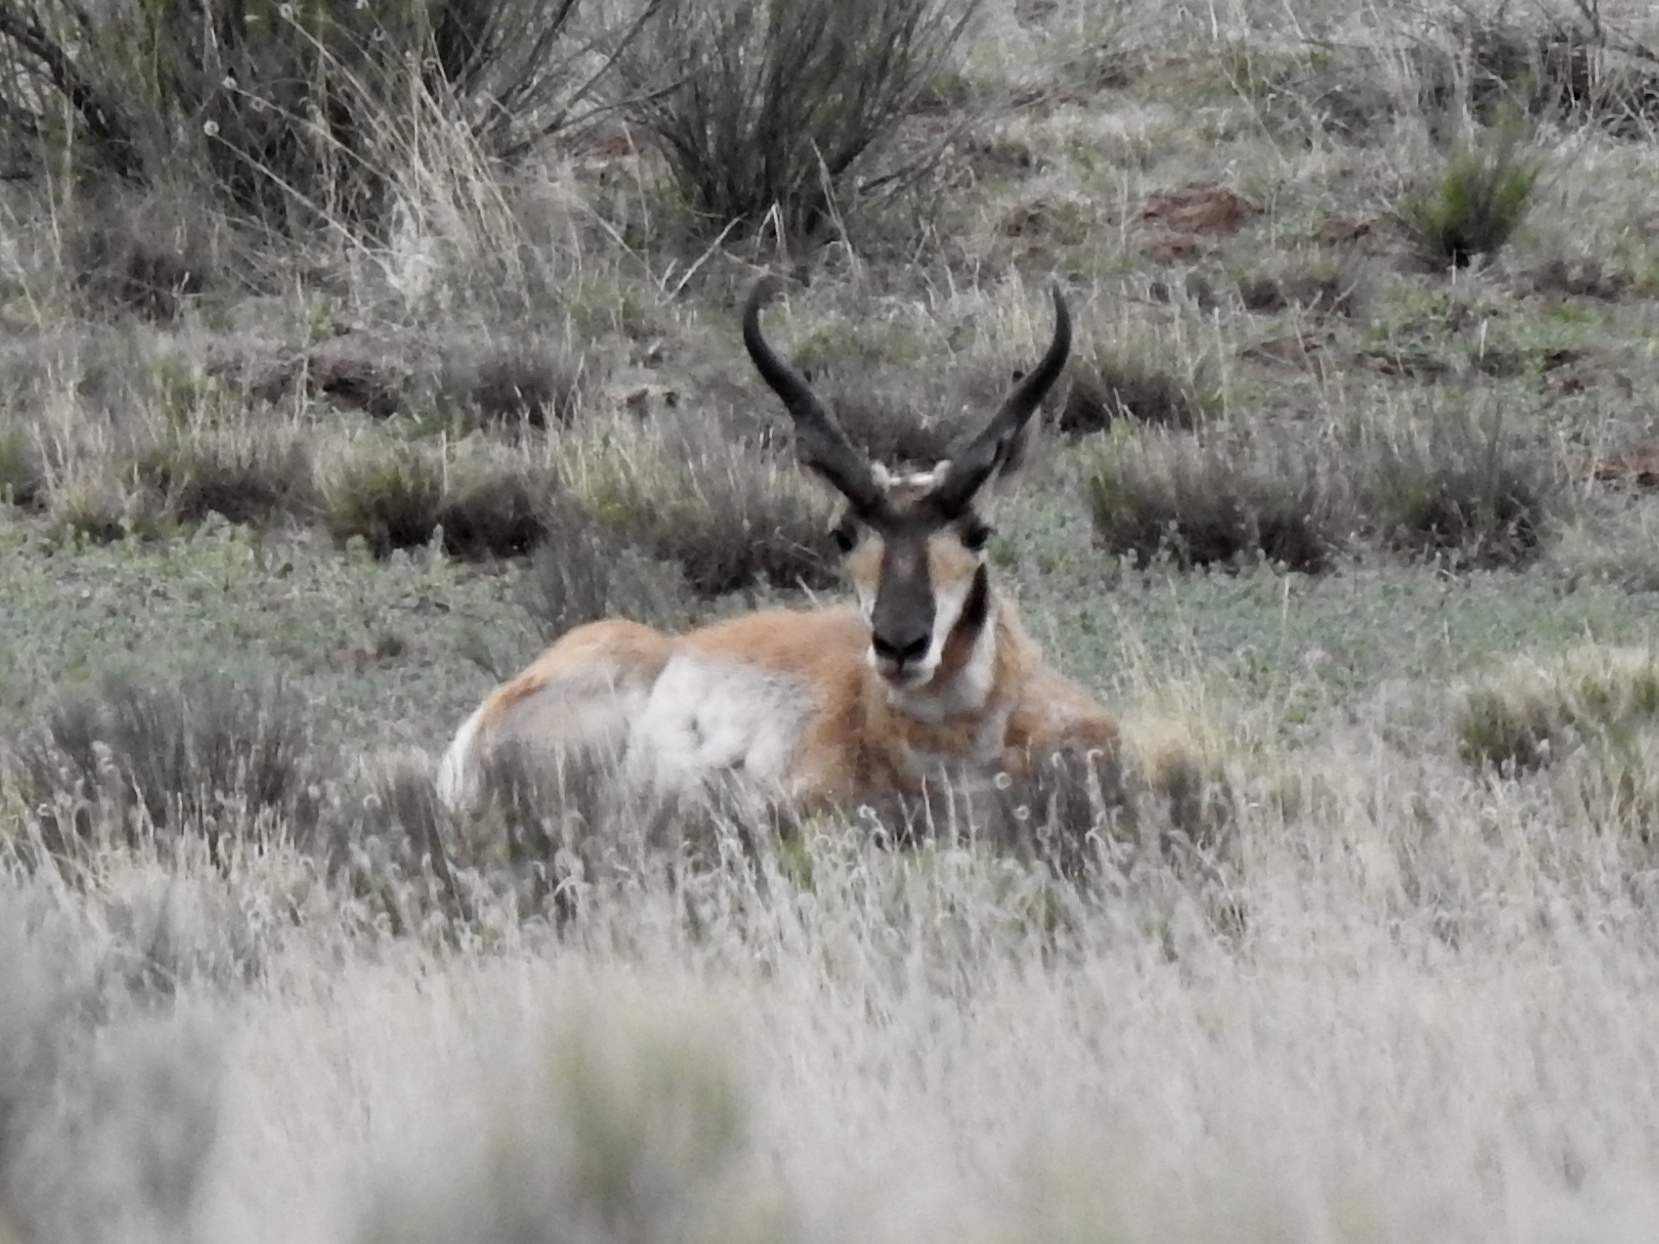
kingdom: Animalia
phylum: Chordata
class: Mammalia
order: Artiodactyla
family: Antilocapridae
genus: Antilocapra
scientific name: Antilocapra americana
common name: Pronghorn
